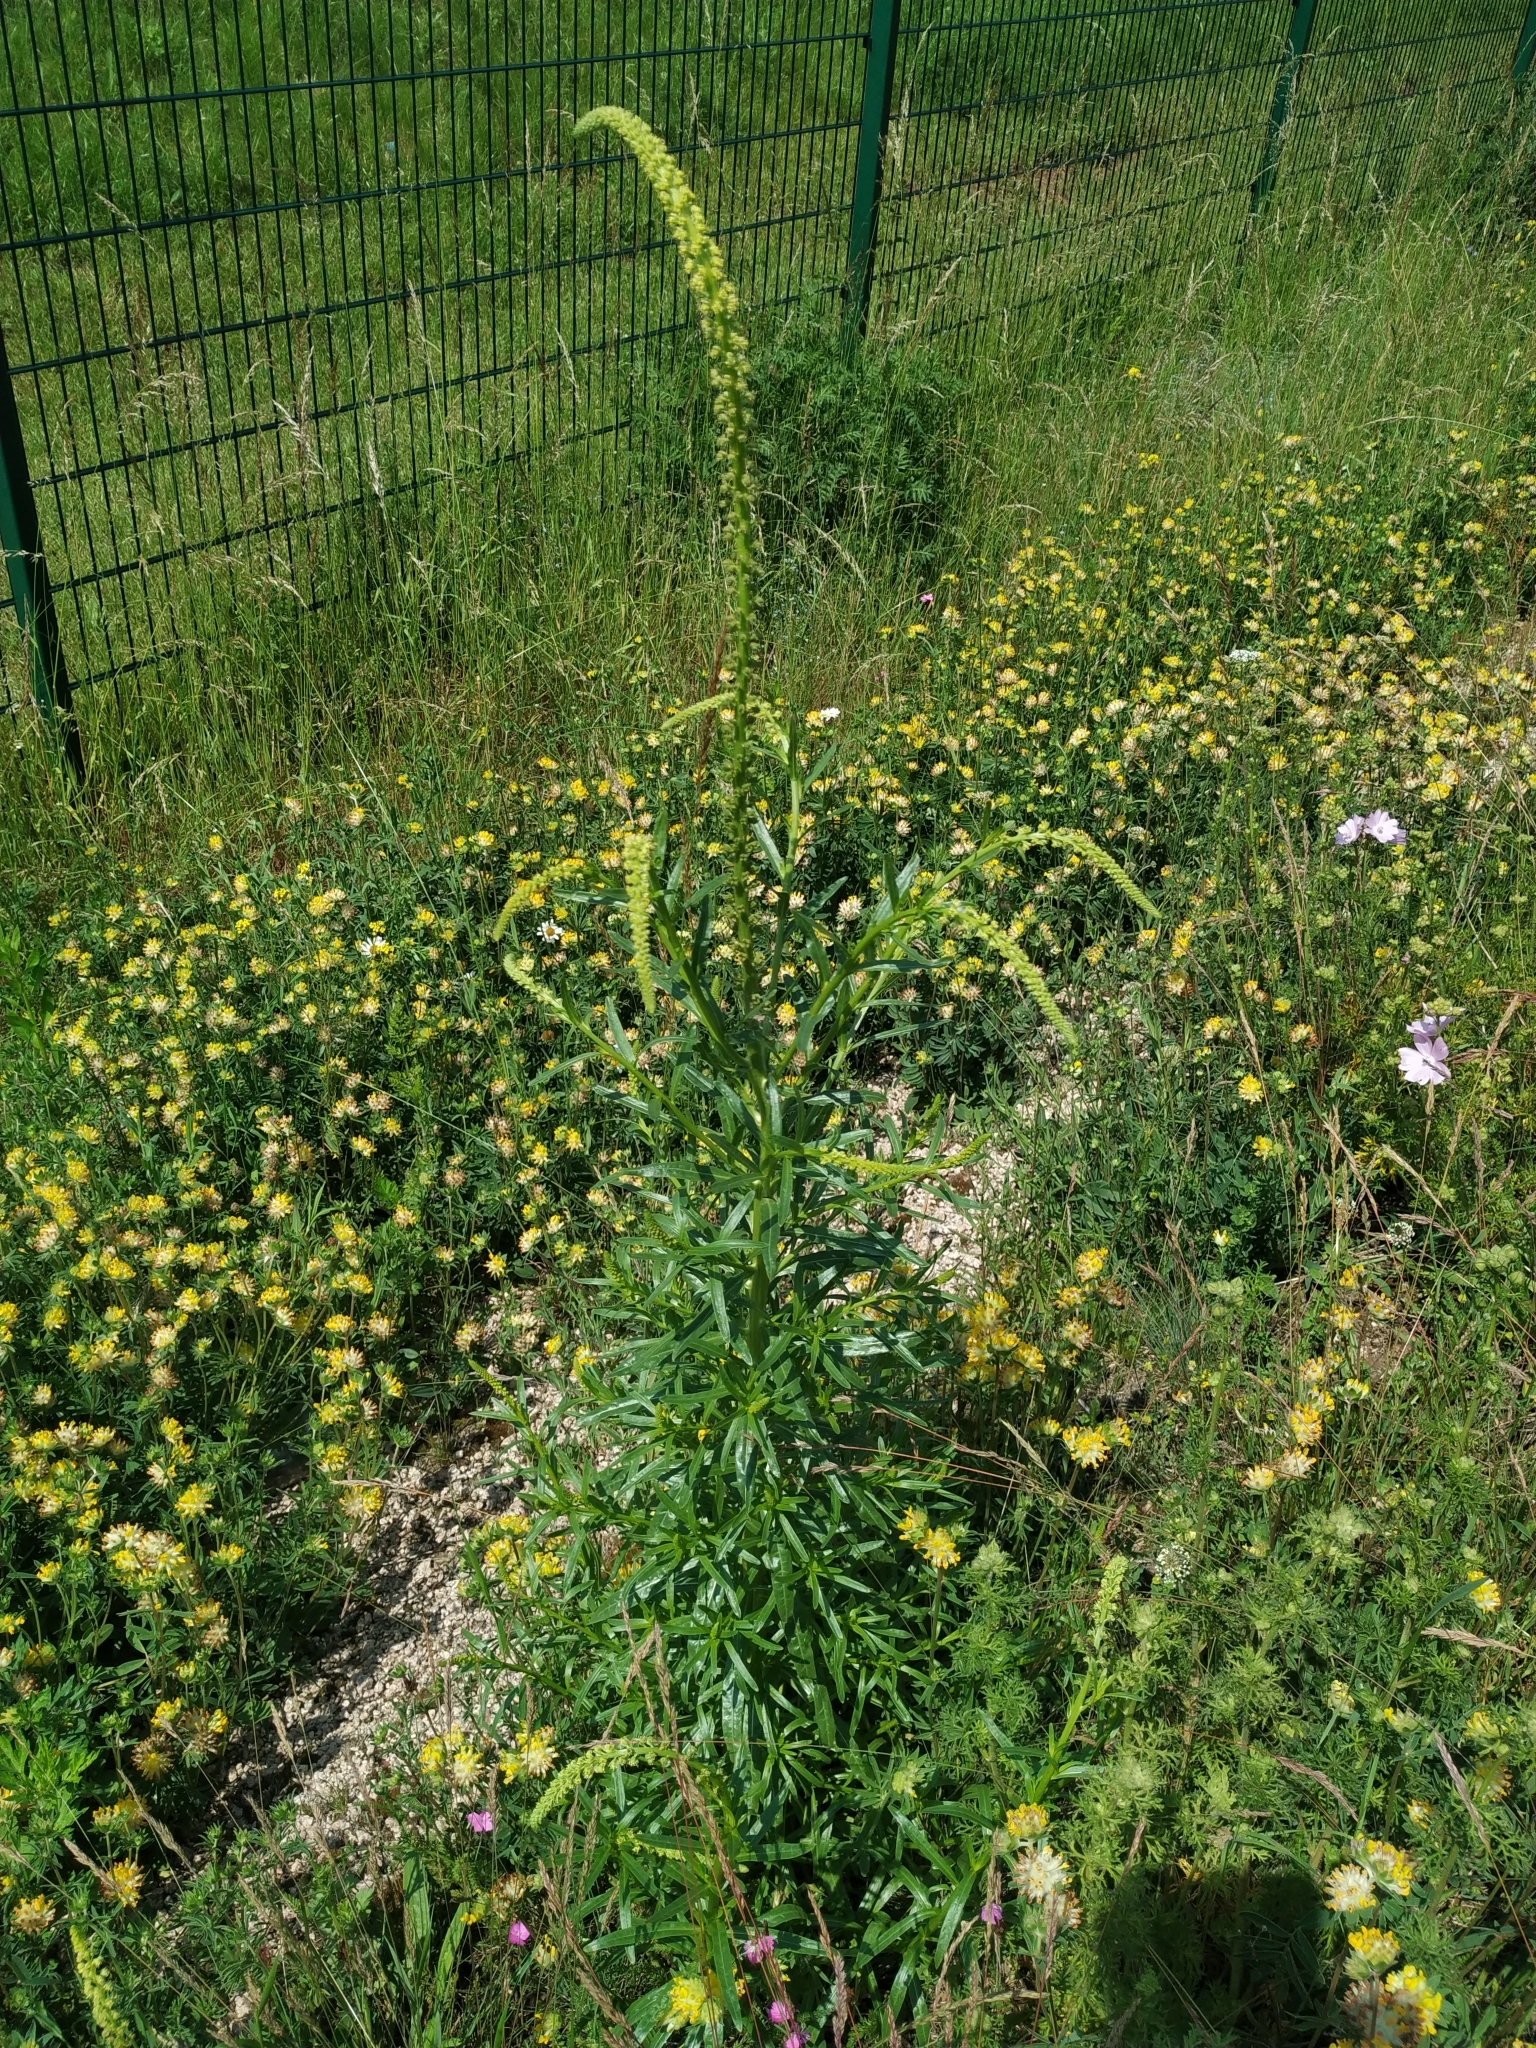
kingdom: Plantae
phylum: Tracheophyta
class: Magnoliopsida
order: Brassicales
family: Resedaceae
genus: Reseda
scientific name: Reseda luteola
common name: Weld
